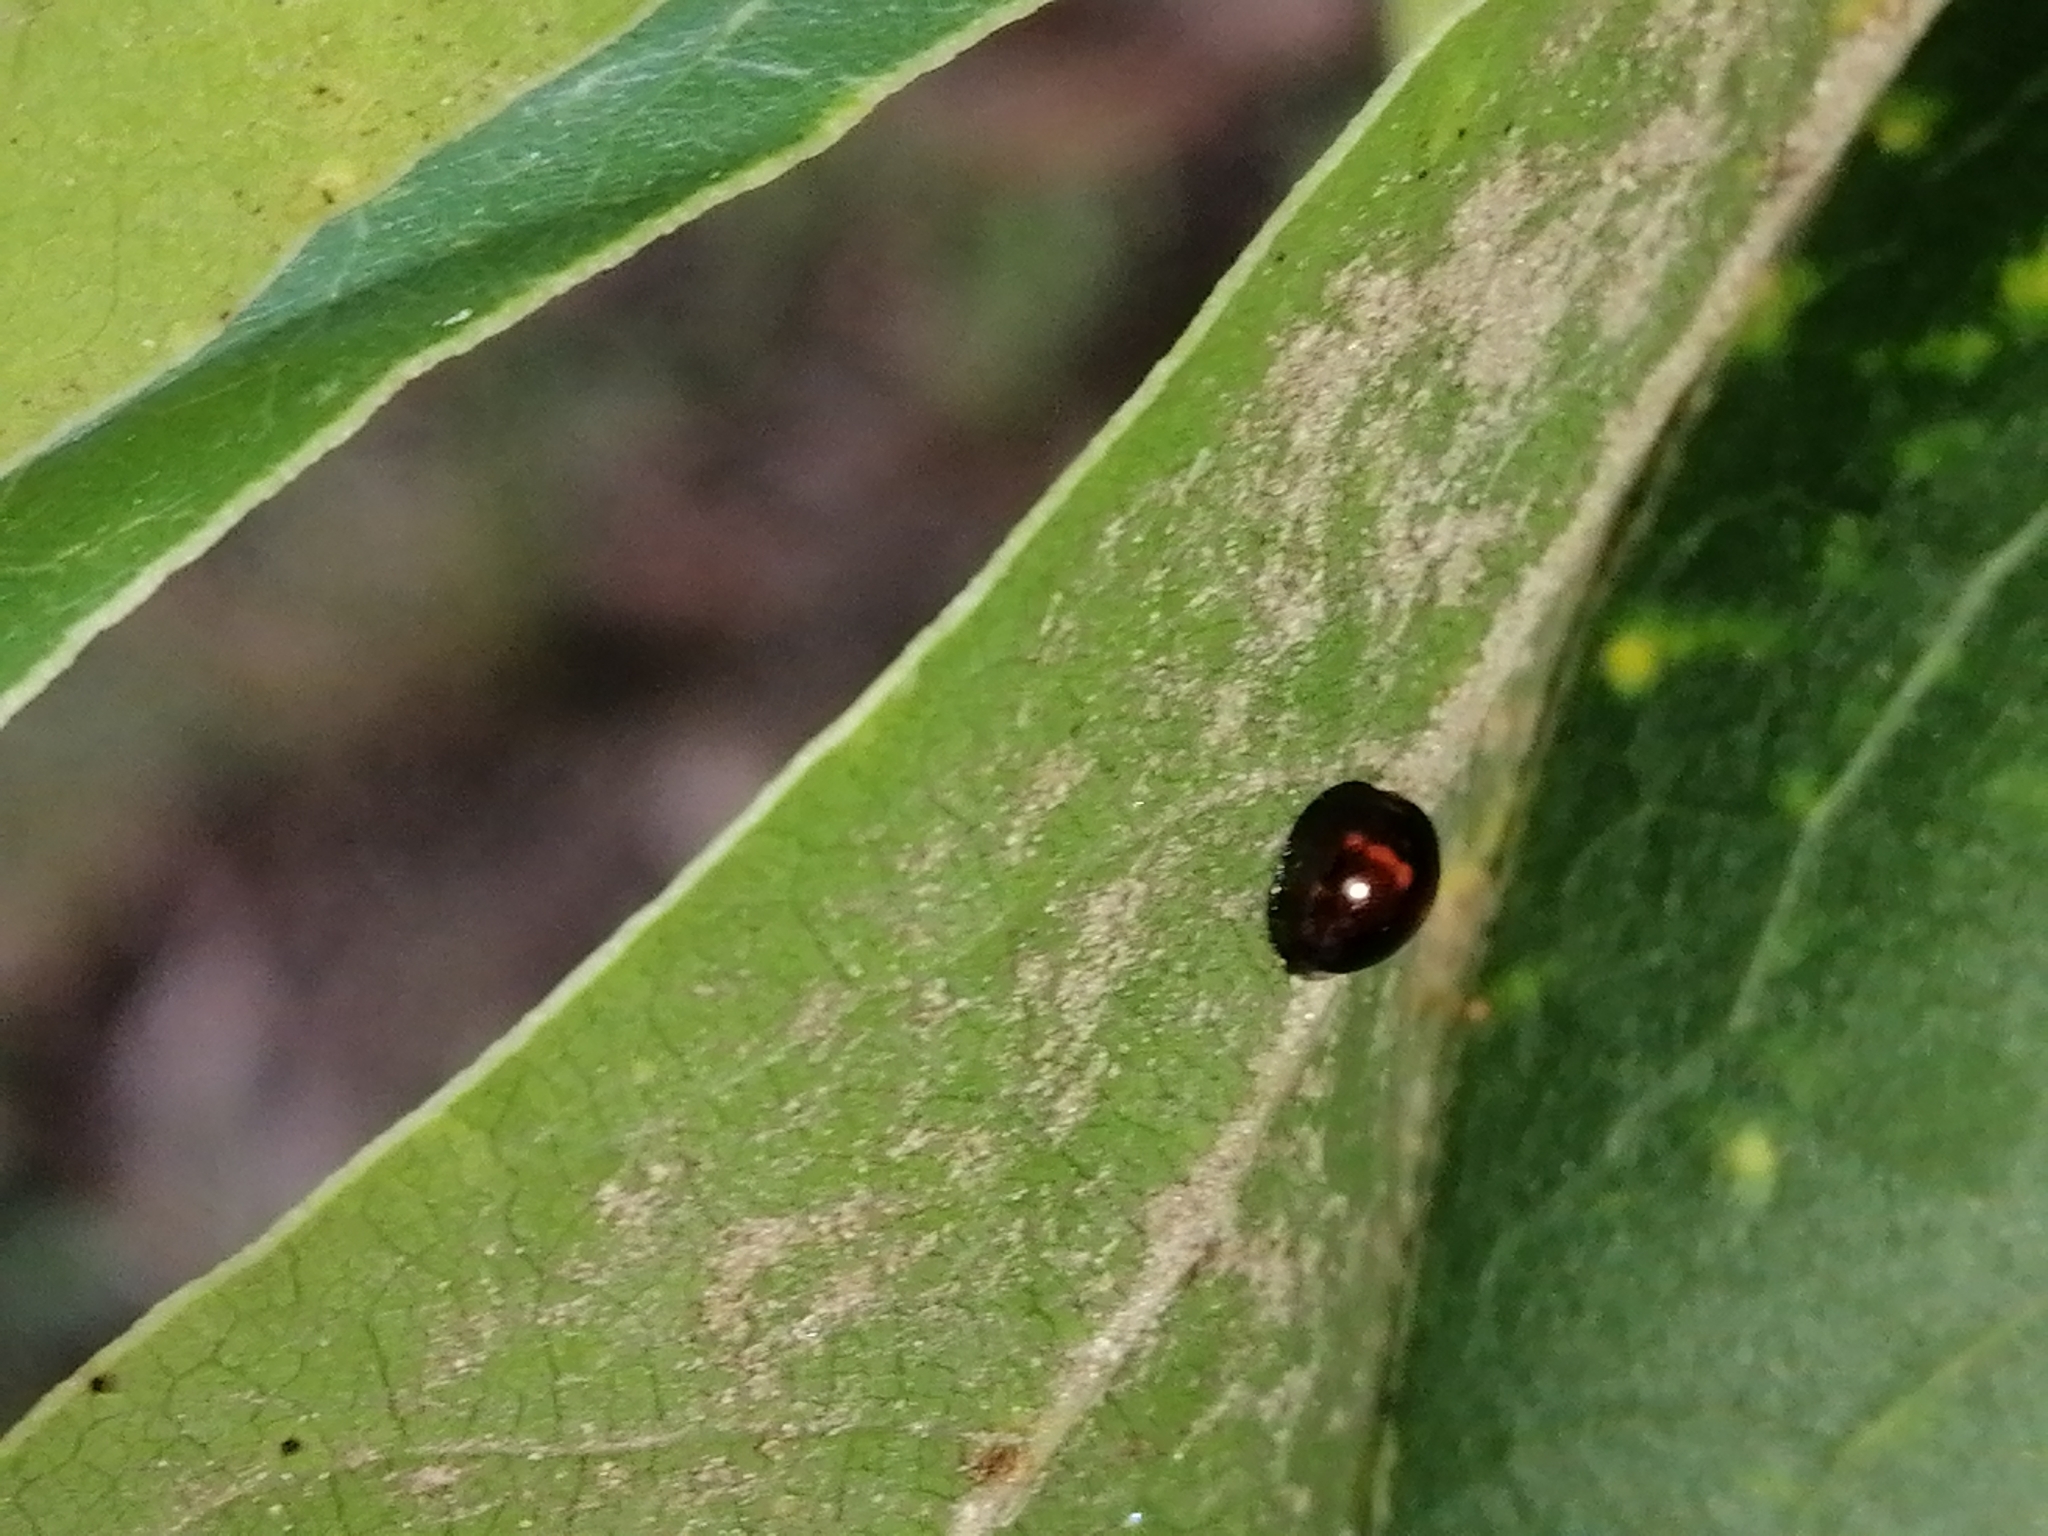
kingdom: Animalia
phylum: Arthropoda
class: Insecta
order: Coleoptera
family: Coccinellidae
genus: Chilocorus
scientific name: Chilocorus bipustulatus
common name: Heather ladybird
